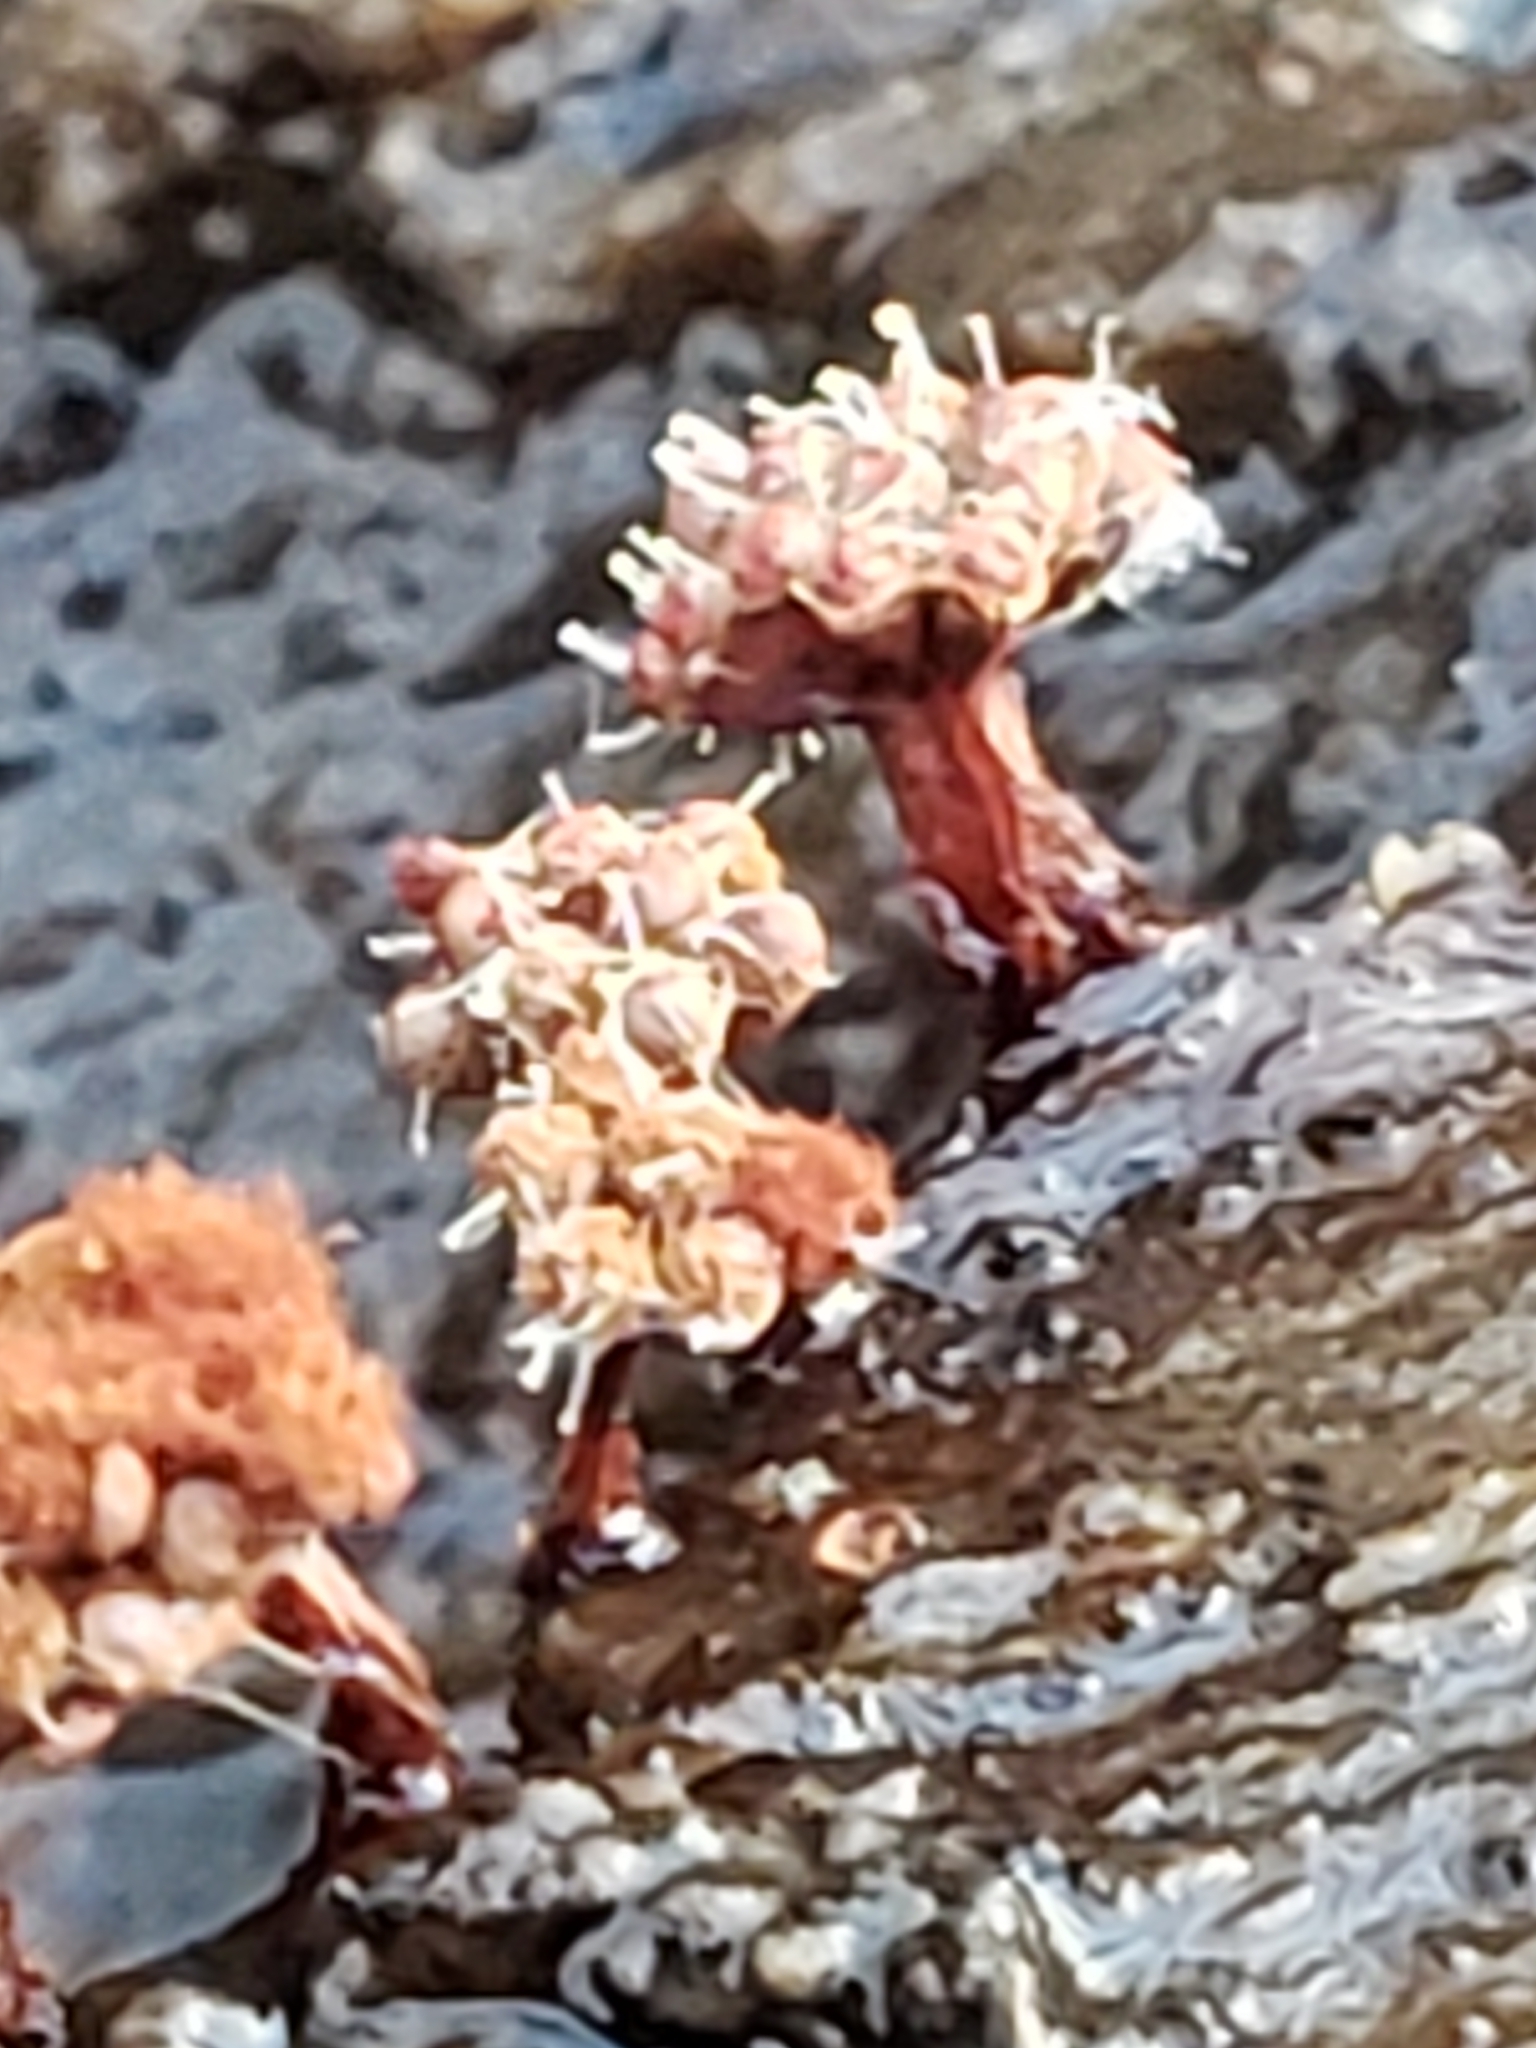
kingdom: Protozoa
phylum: Mycetozoa
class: Myxomycetes
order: Trichiales
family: Trichiaceae
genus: Metatrichia
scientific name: Metatrichia vesparia
